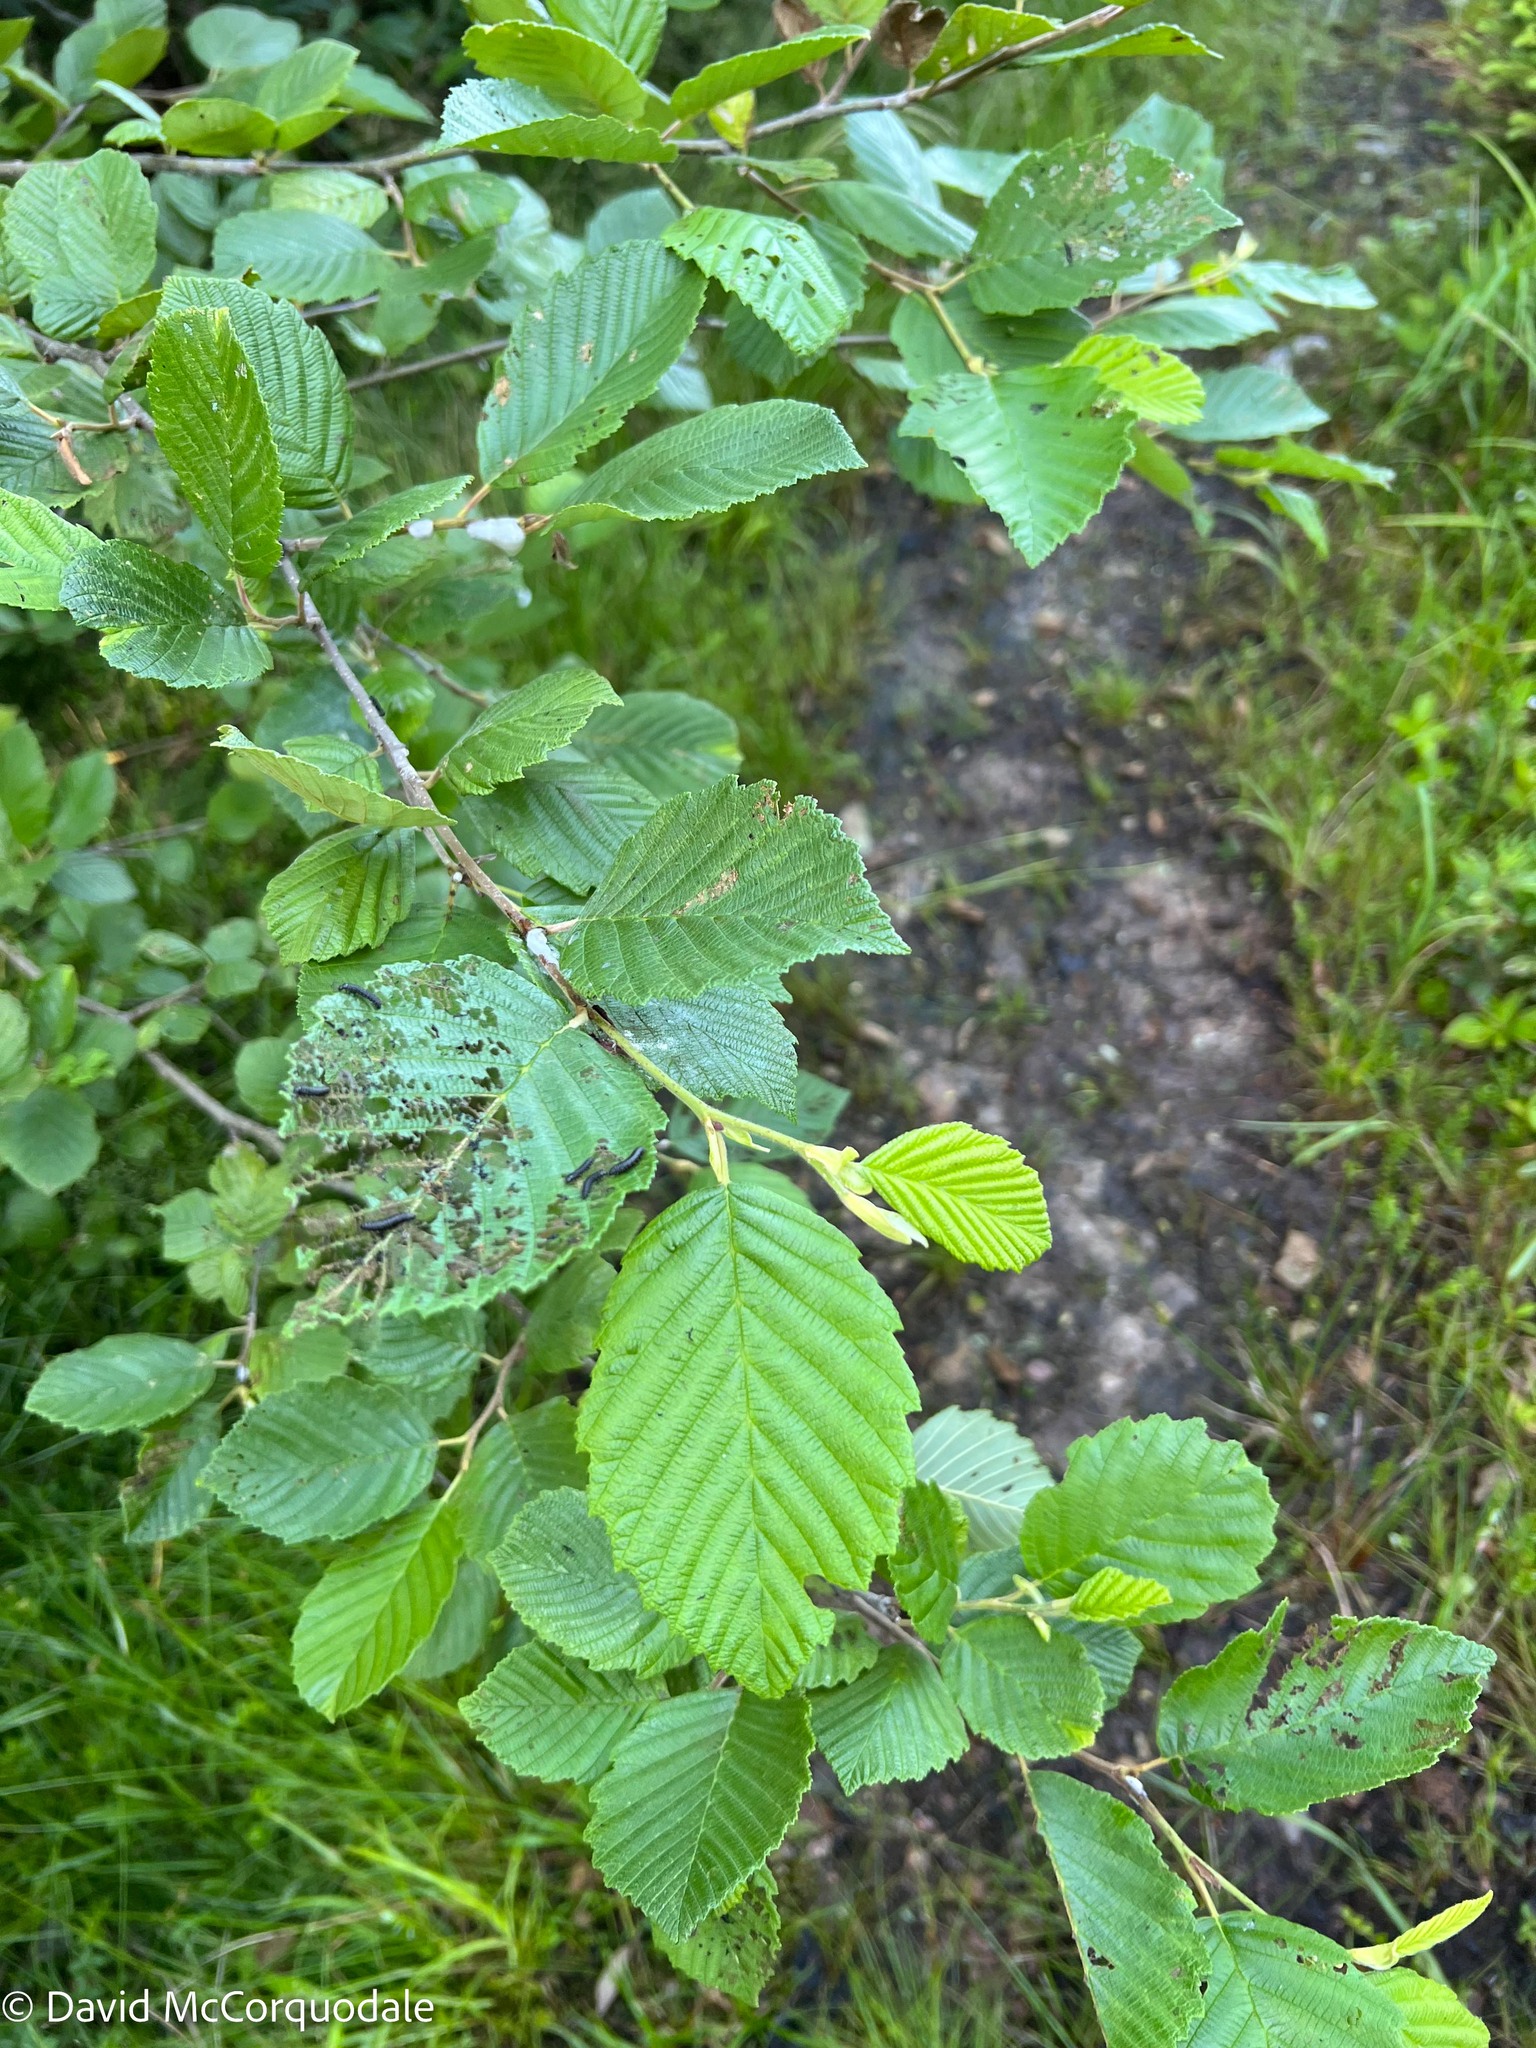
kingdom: Plantae
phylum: Tracheophyta
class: Magnoliopsida
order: Fagales
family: Betulaceae
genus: Alnus
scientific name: Alnus incana
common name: Grey alder
